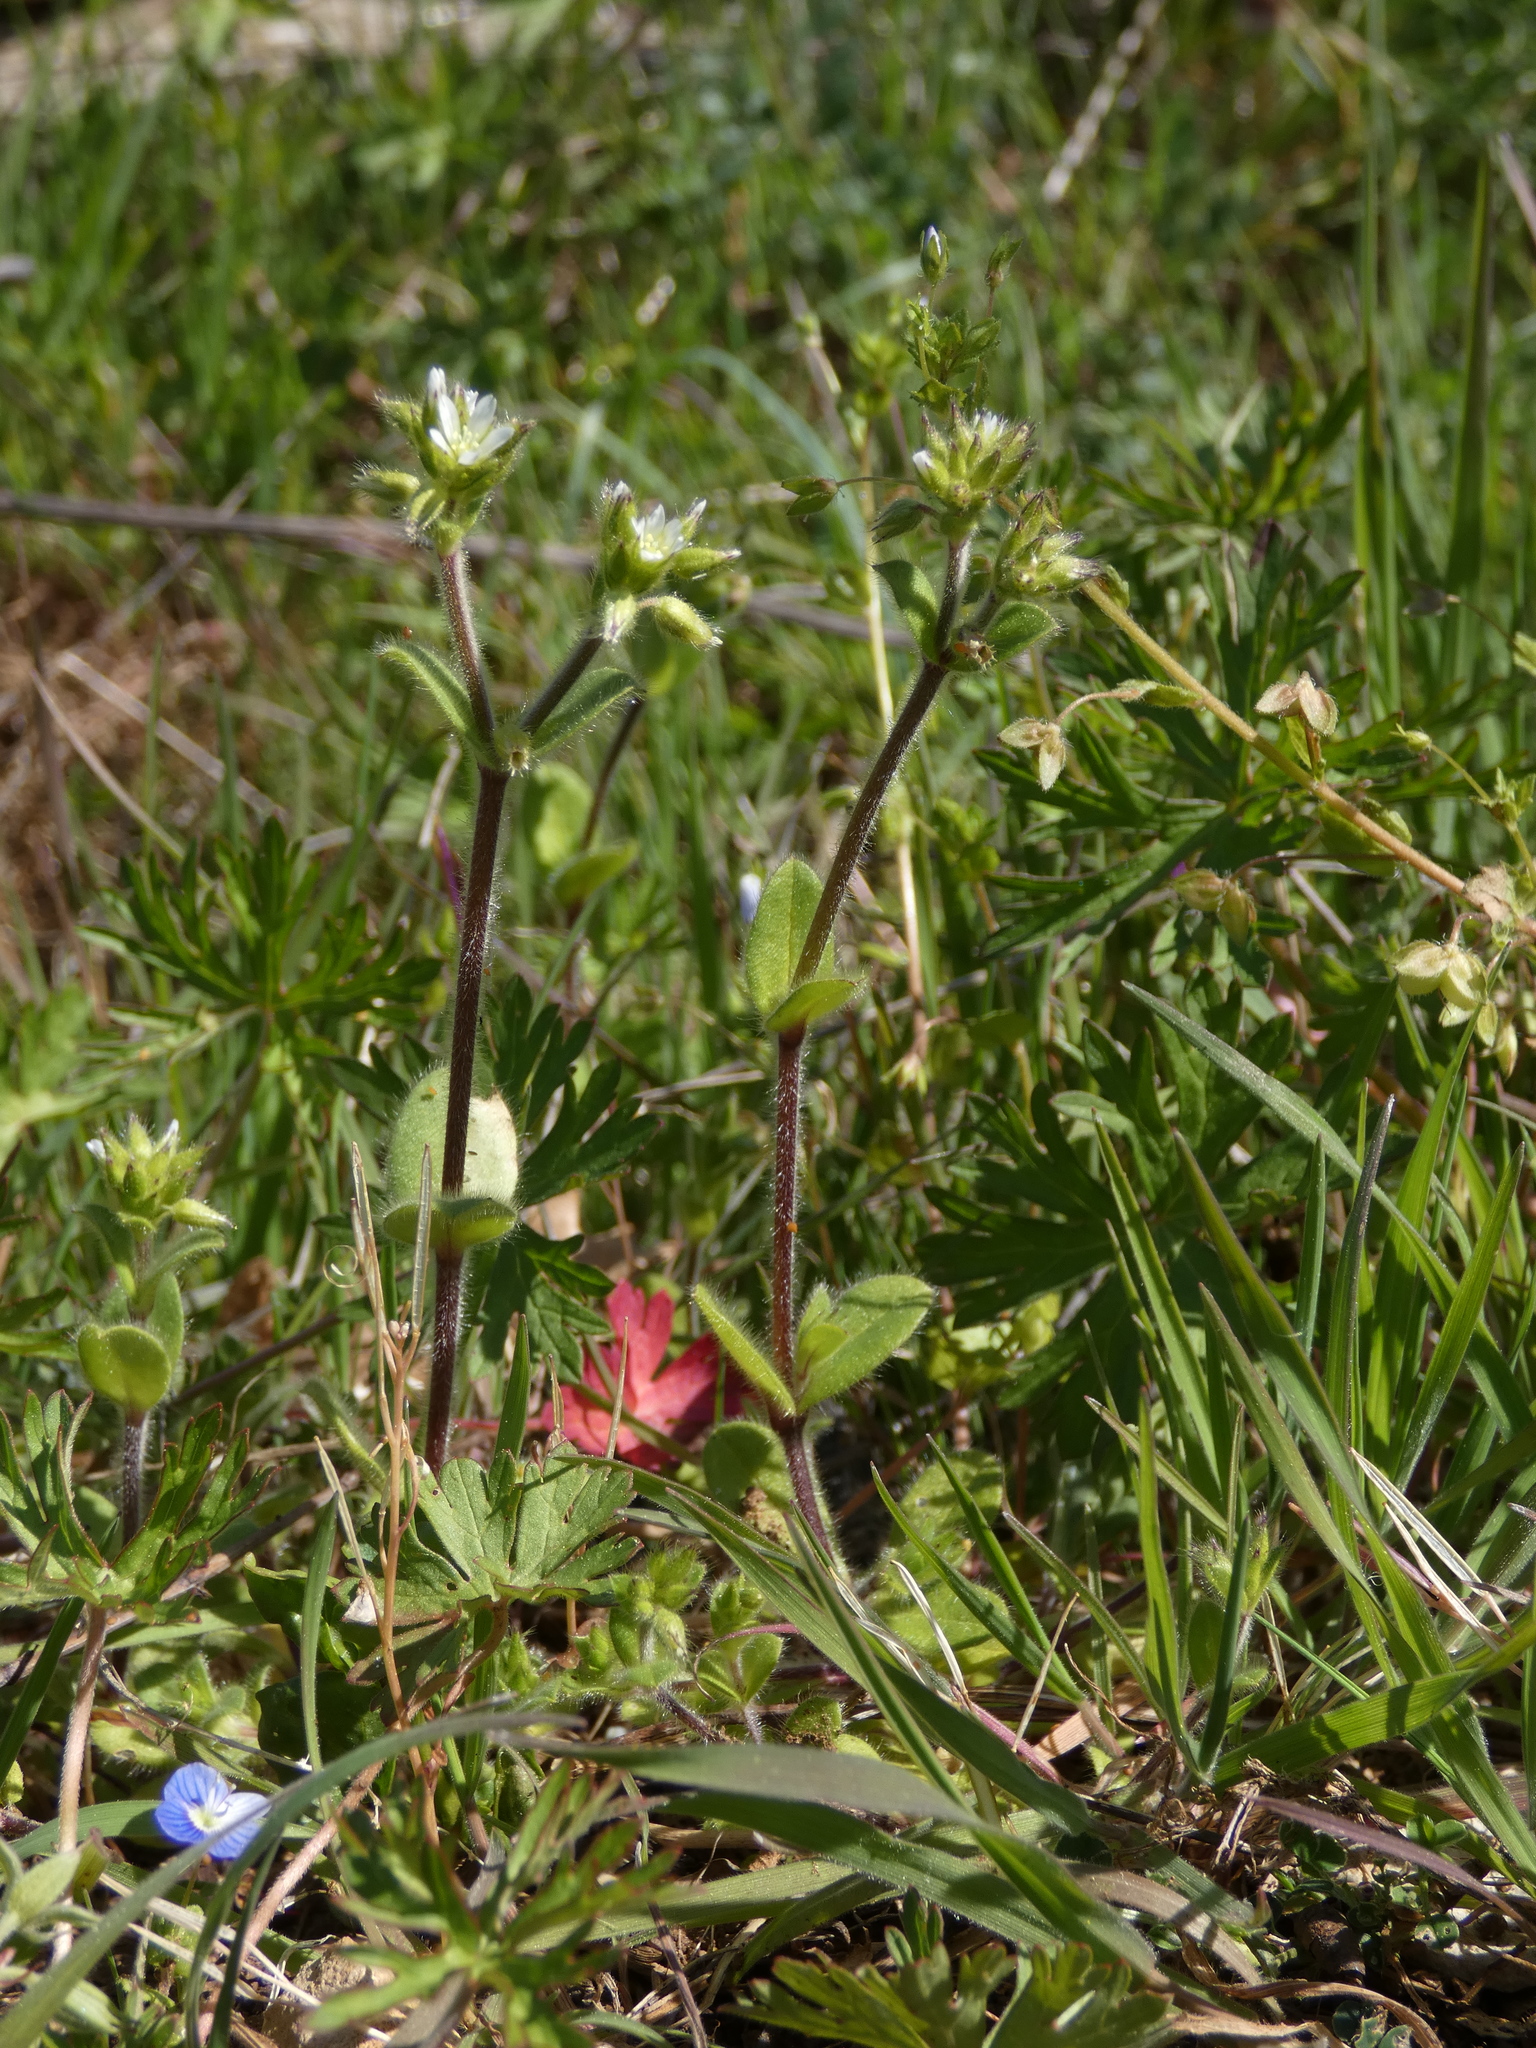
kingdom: Plantae
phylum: Tracheophyta
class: Magnoliopsida
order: Caryophyllales
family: Caryophyllaceae
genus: Cerastium
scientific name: Cerastium glomeratum
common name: Sticky chickweed
